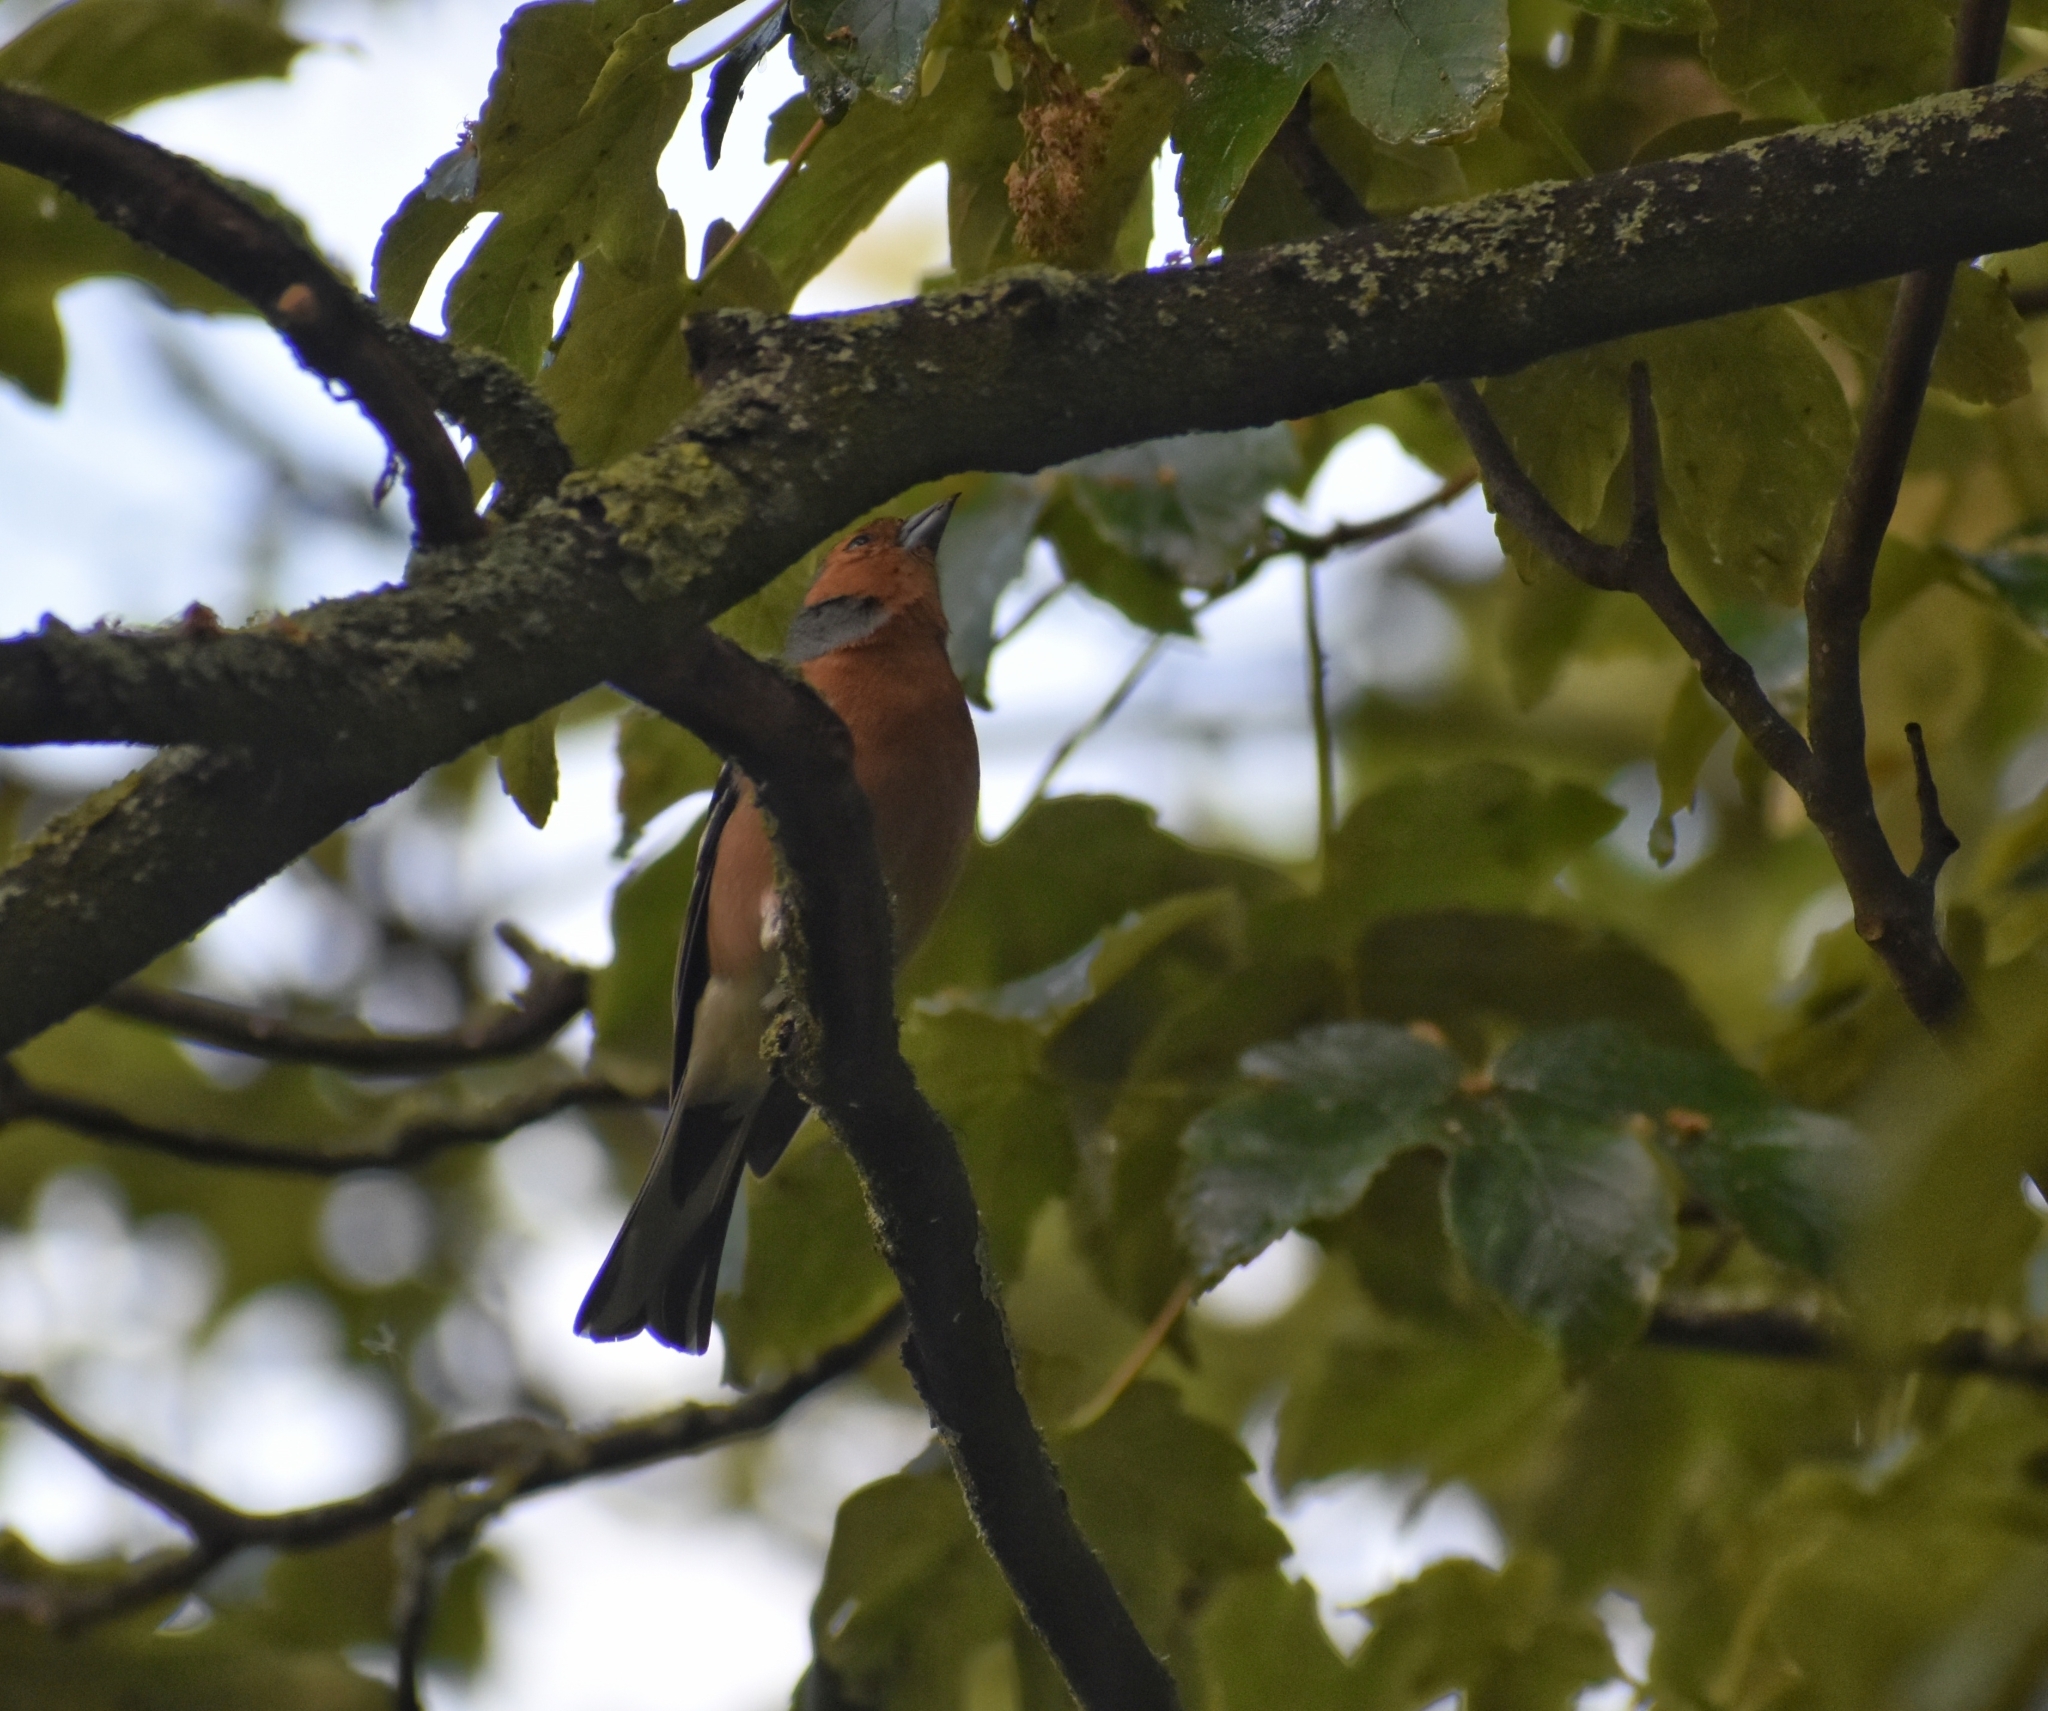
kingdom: Animalia
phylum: Chordata
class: Aves
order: Passeriformes
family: Fringillidae
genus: Fringilla
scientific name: Fringilla coelebs
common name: Common chaffinch
